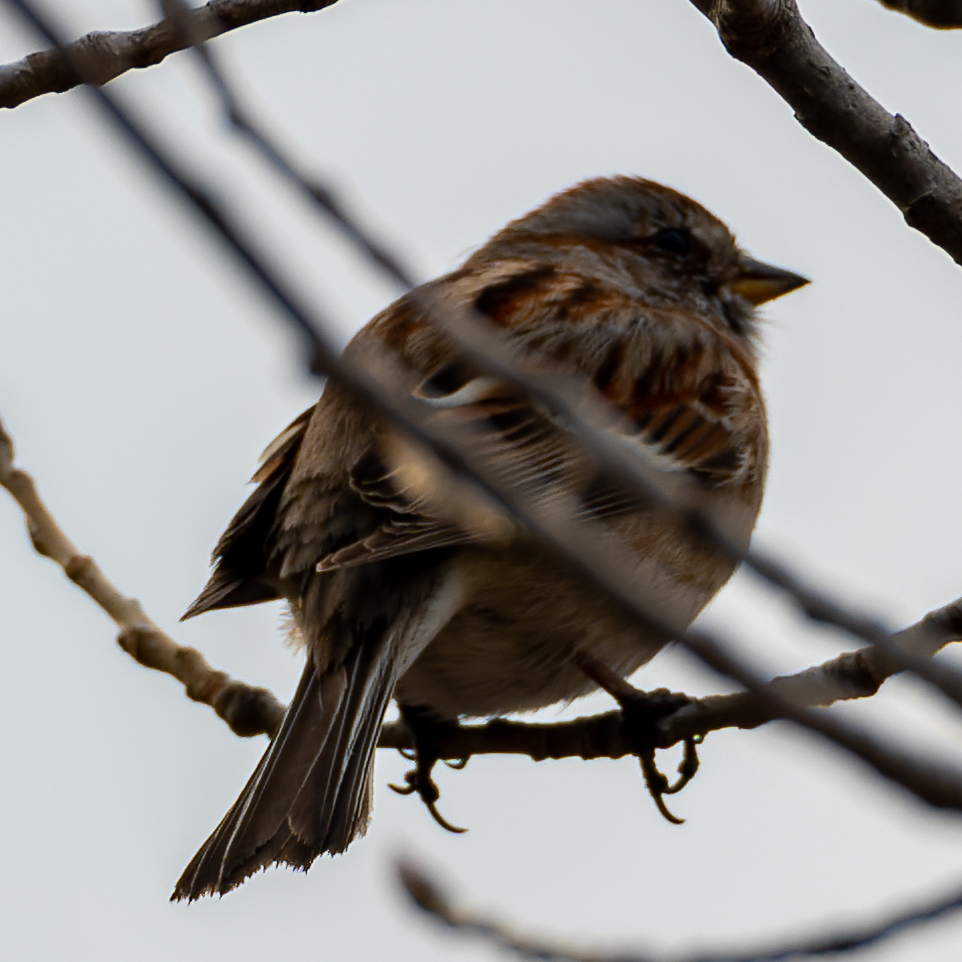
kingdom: Animalia
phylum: Chordata
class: Aves
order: Passeriformes
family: Passerellidae
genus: Spizelloides
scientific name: Spizelloides arborea
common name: American tree sparrow
